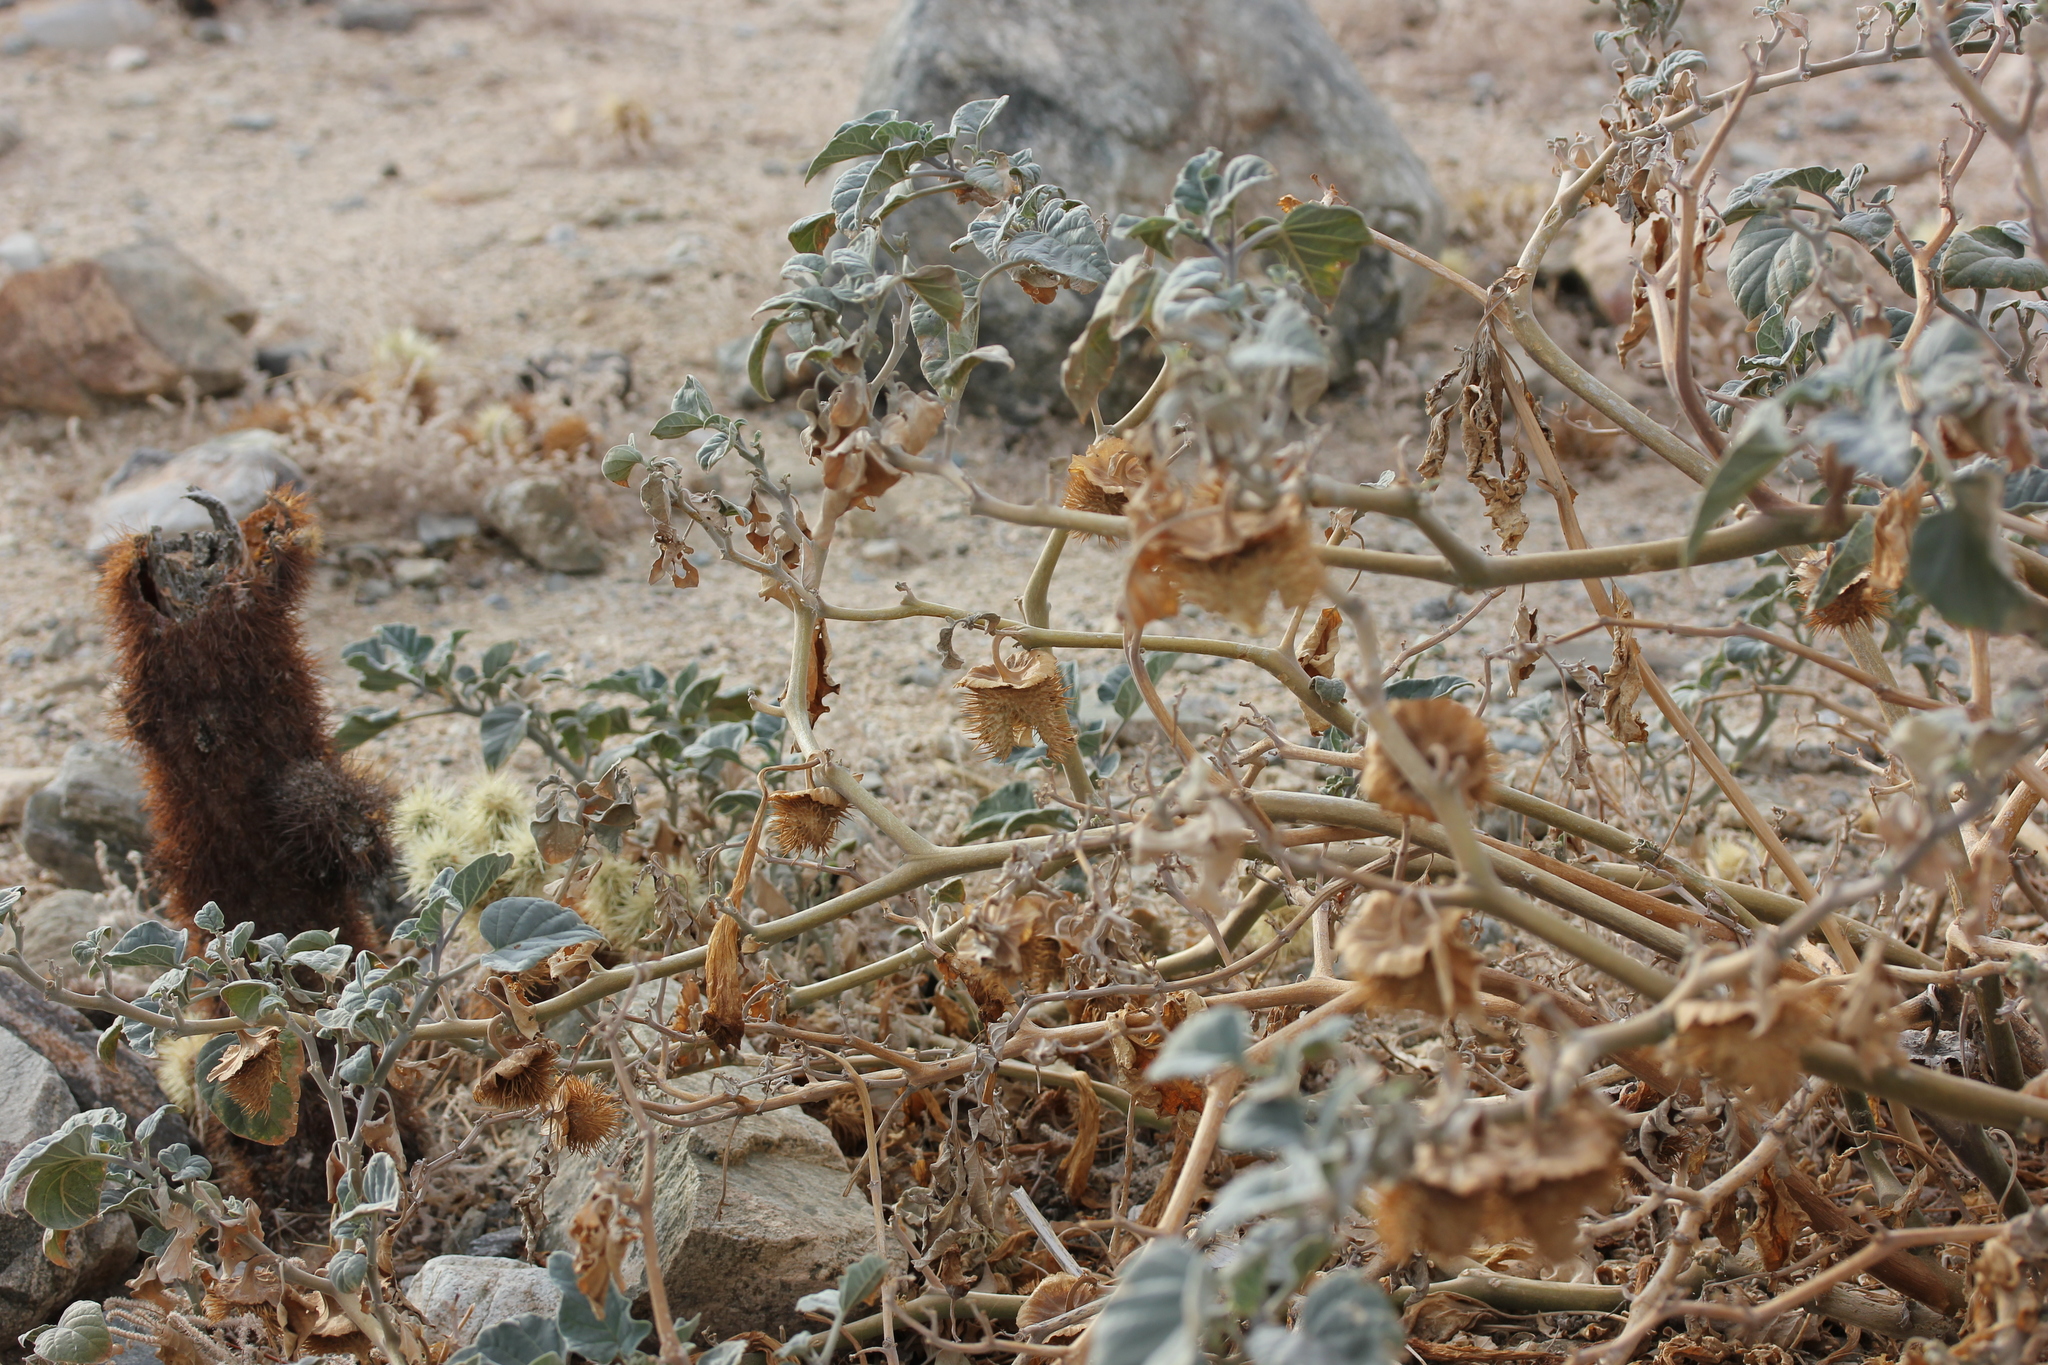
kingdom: Plantae
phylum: Tracheophyta
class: Magnoliopsida
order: Solanales
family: Solanaceae
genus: Datura
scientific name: Datura wrightii
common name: Sacred thorn-apple
